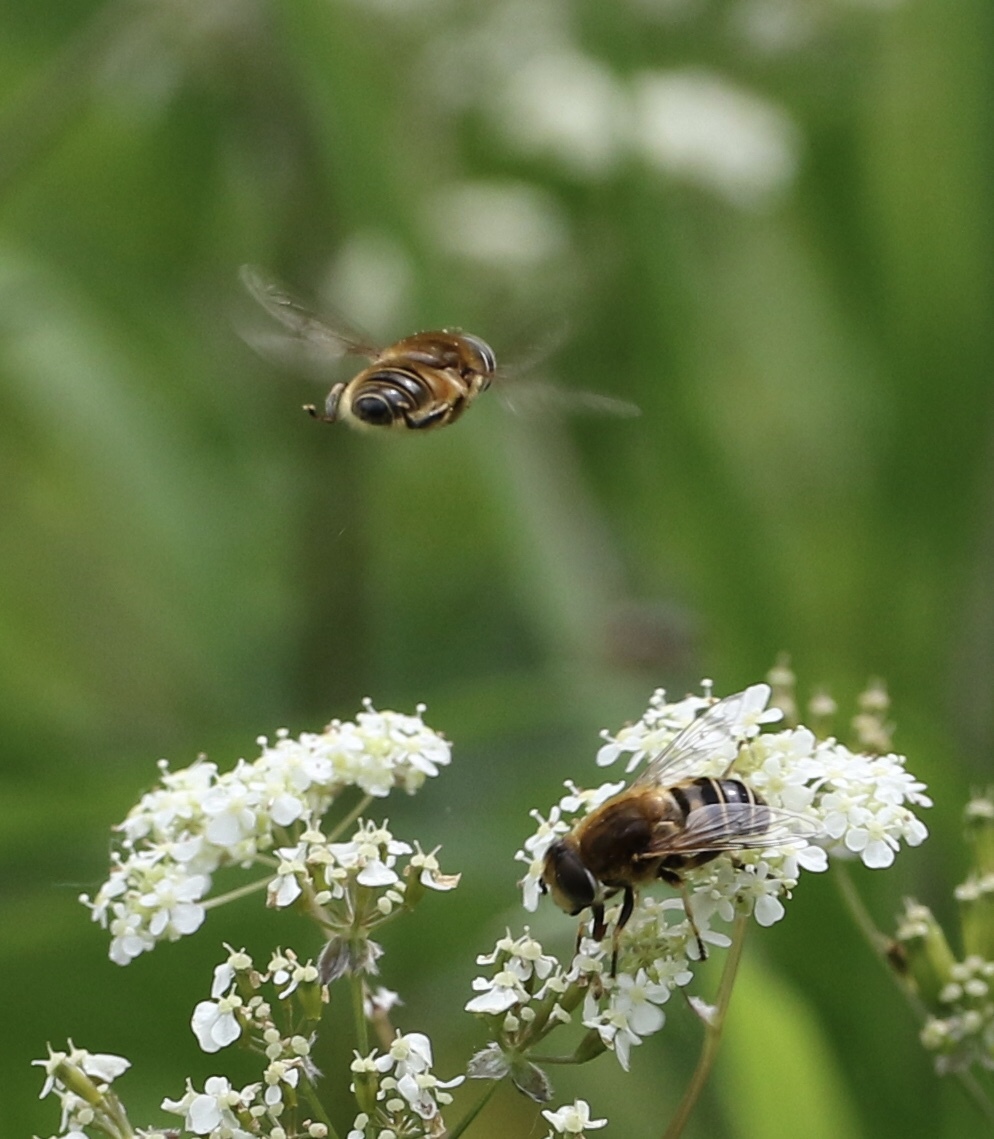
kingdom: Animalia
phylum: Arthropoda
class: Insecta
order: Diptera
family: Syrphidae
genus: Eristalis
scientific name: Eristalis nemorum
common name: Orange-spined drone fly
